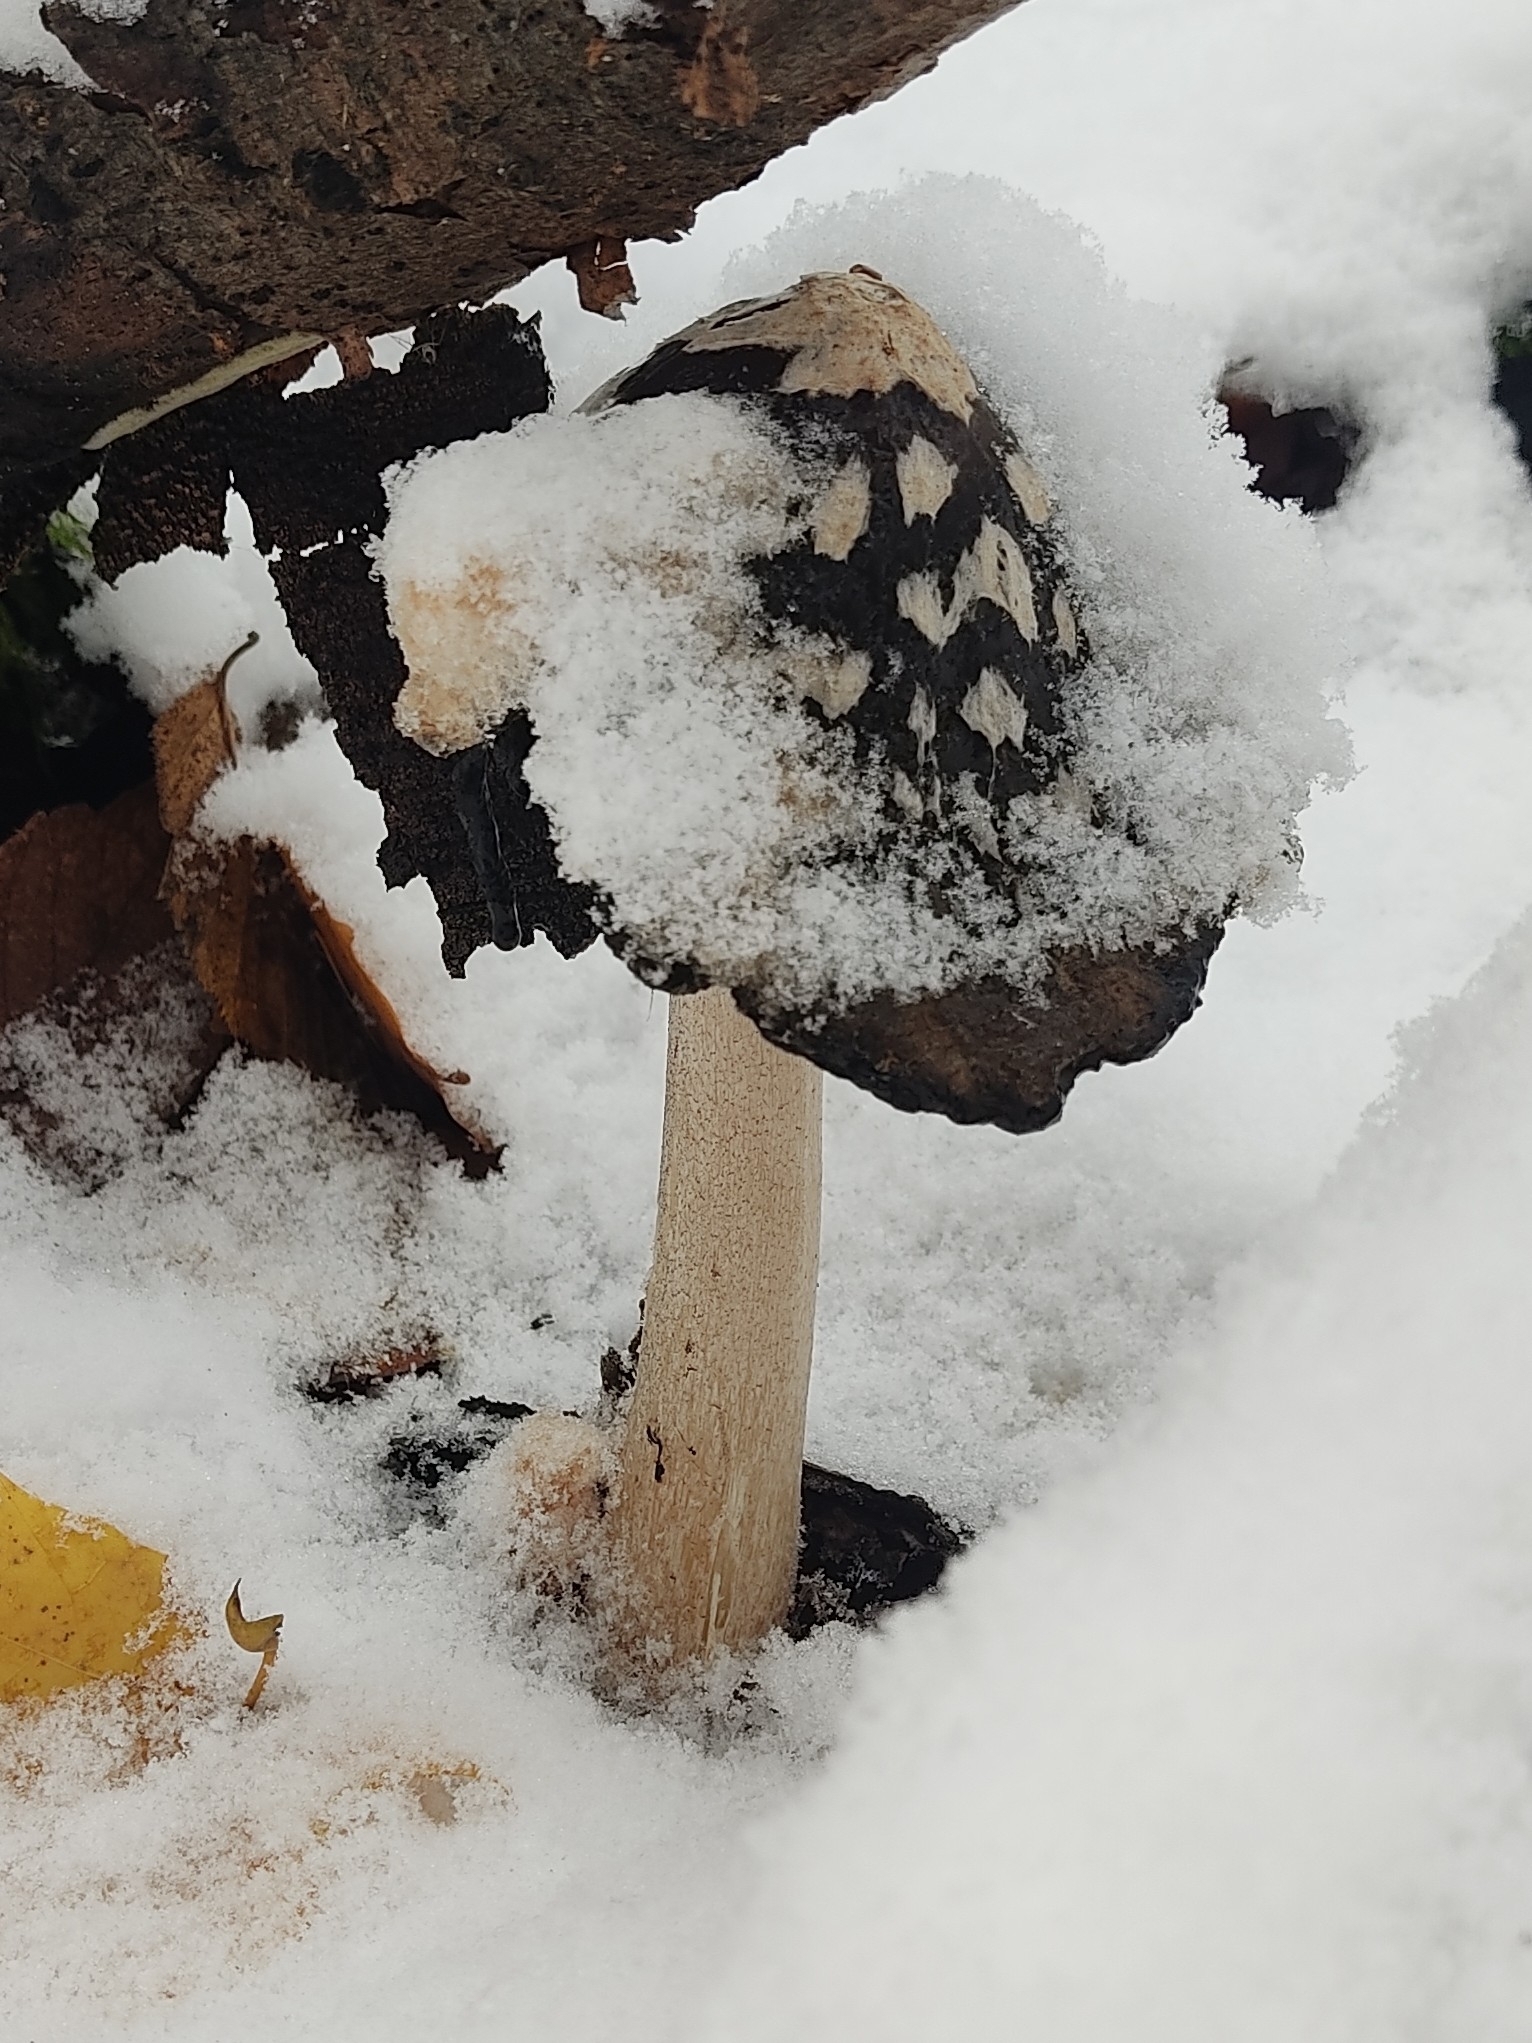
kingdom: Fungi
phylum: Basidiomycota
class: Agaricomycetes
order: Agaricales
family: Psathyrellaceae
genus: Coprinopsis
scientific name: Coprinopsis picacea
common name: Magpie inkcap
